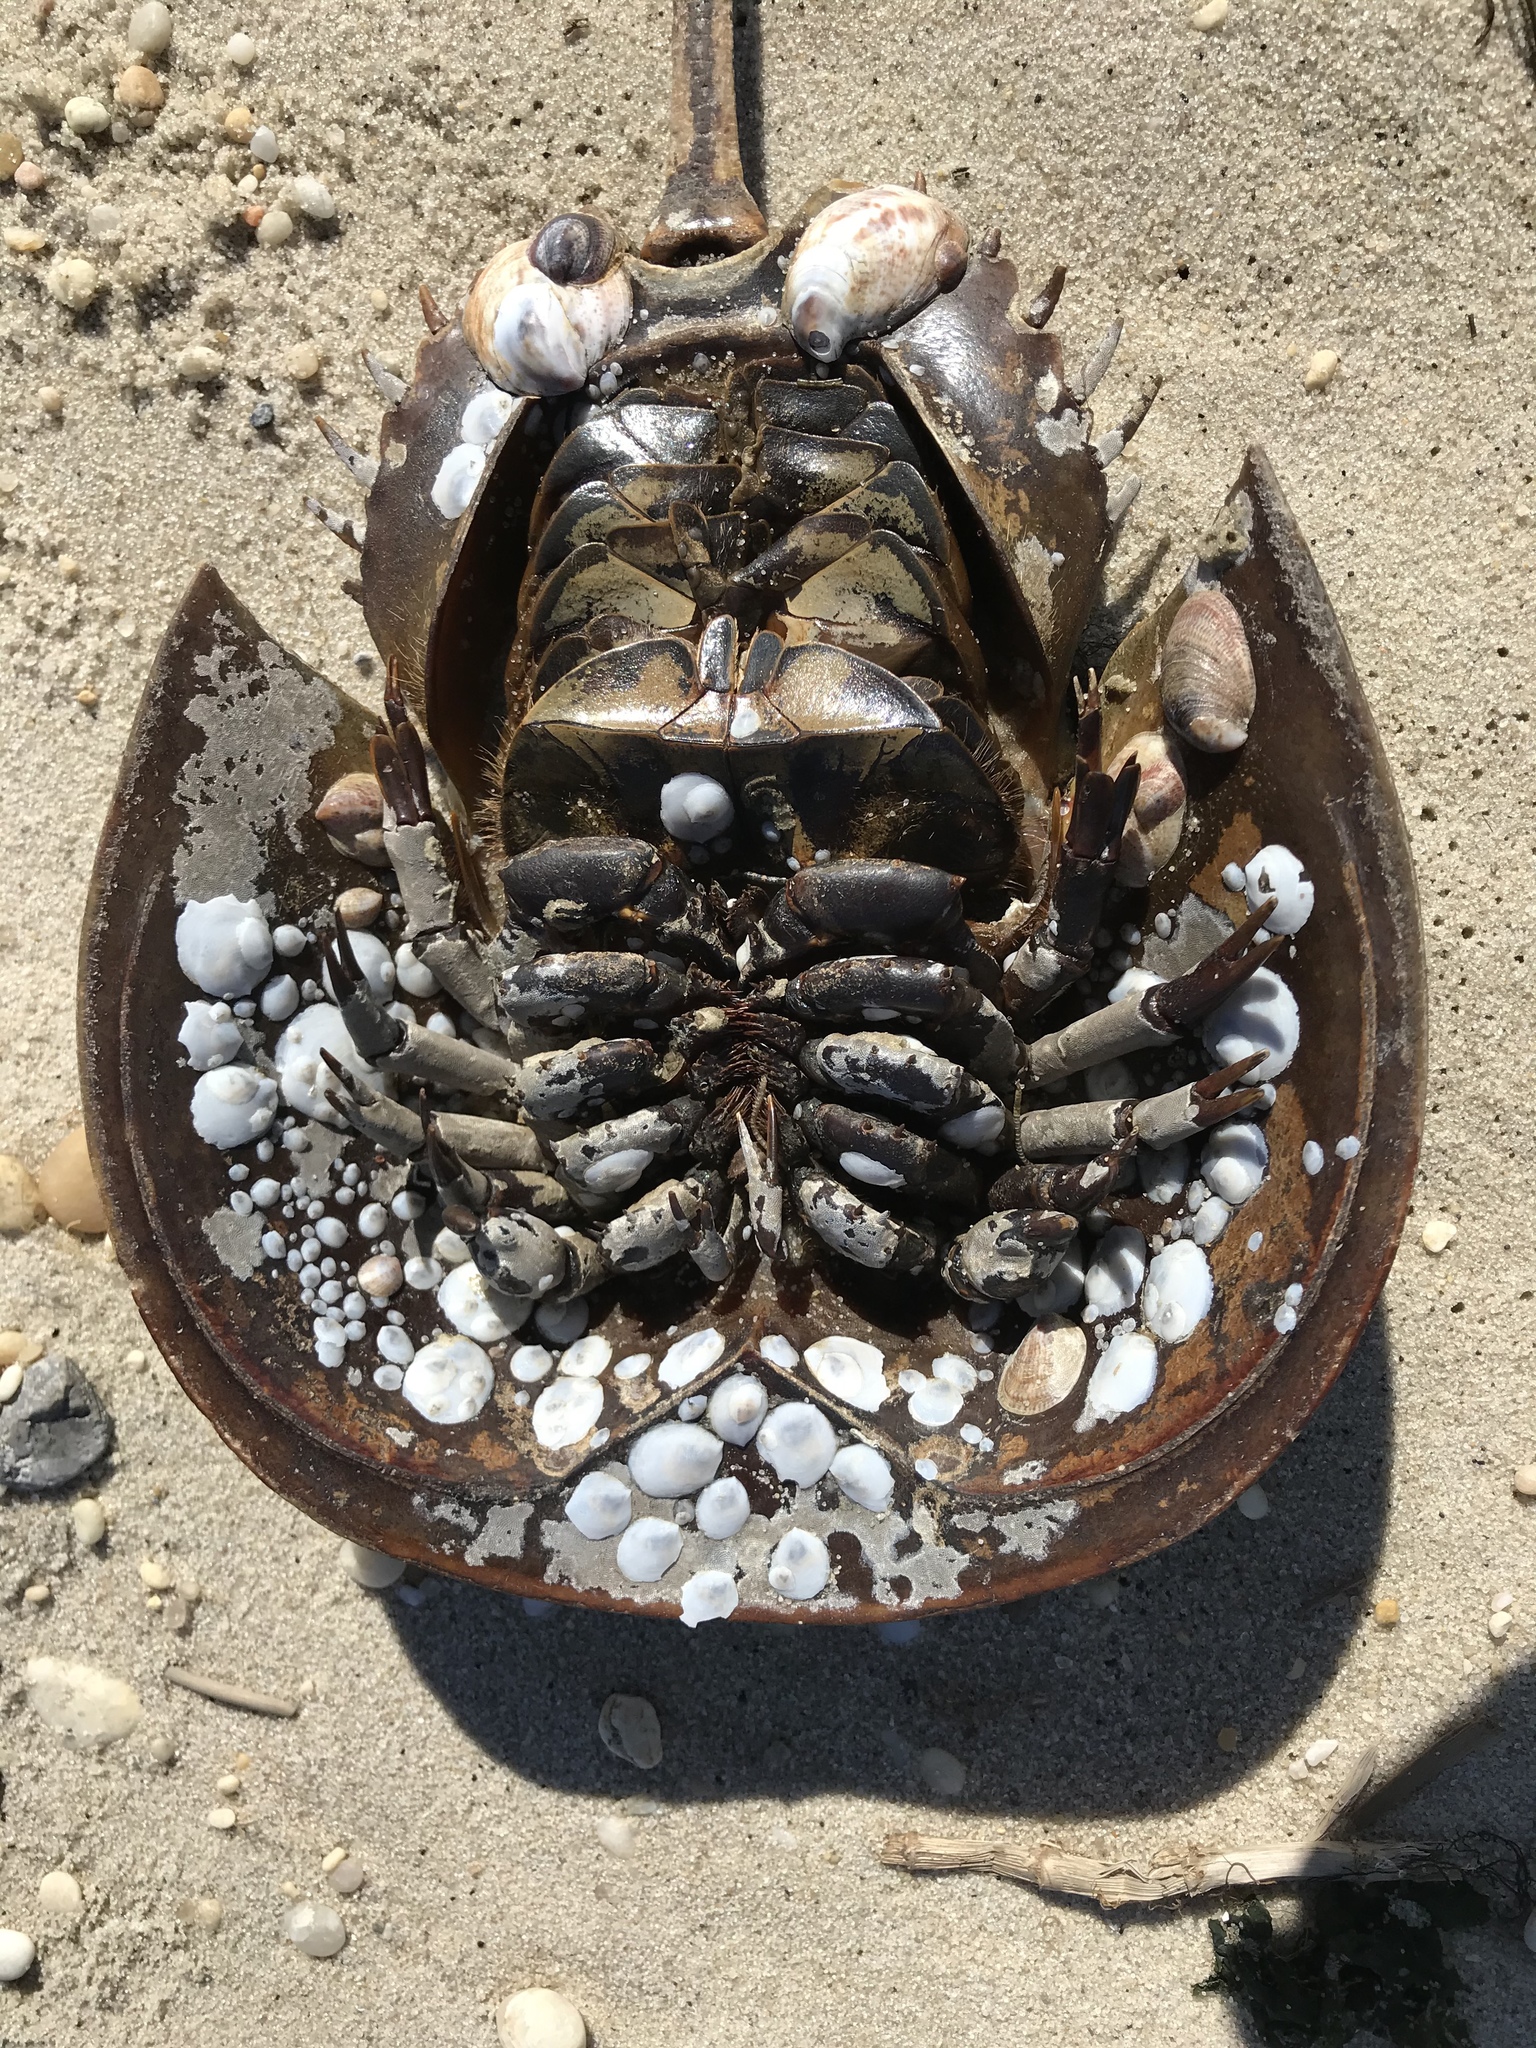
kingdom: Animalia
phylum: Mollusca
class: Gastropoda
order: Littorinimorpha
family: Calyptraeidae
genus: Crepidula
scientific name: Crepidula fornicata
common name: Slipper limpet
